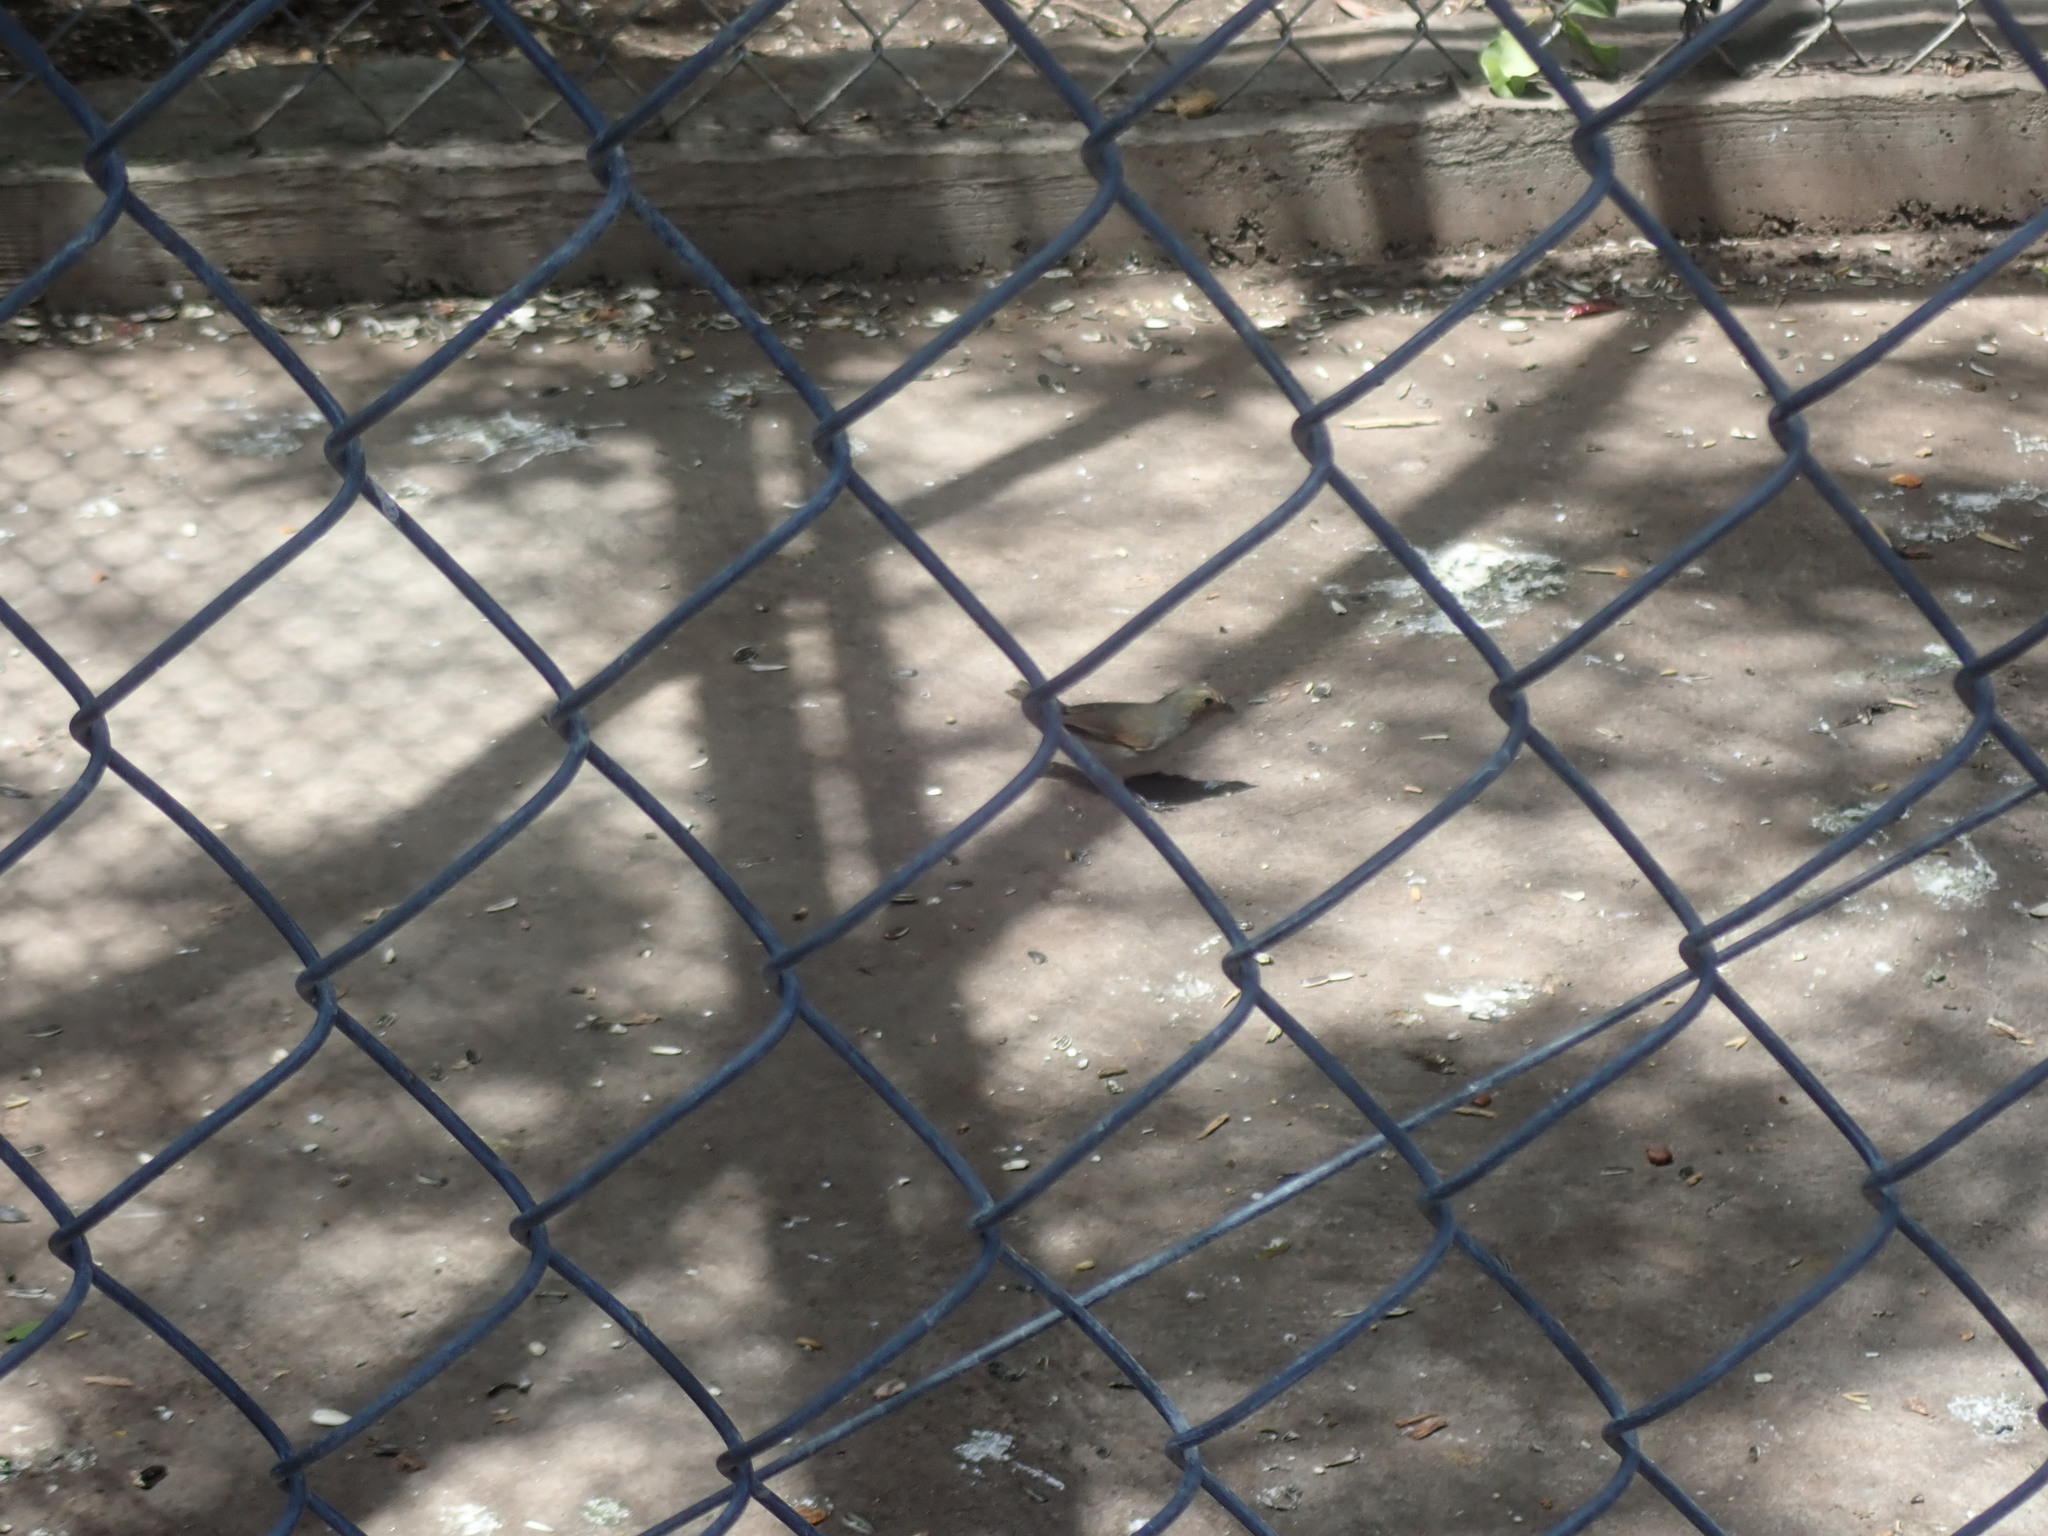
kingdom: Animalia
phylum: Chordata
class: Aves
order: Passeriformes
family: Thraupidae
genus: Loxigilla
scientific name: Loxigilla noctis
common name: Lesser antillean bullfinch
